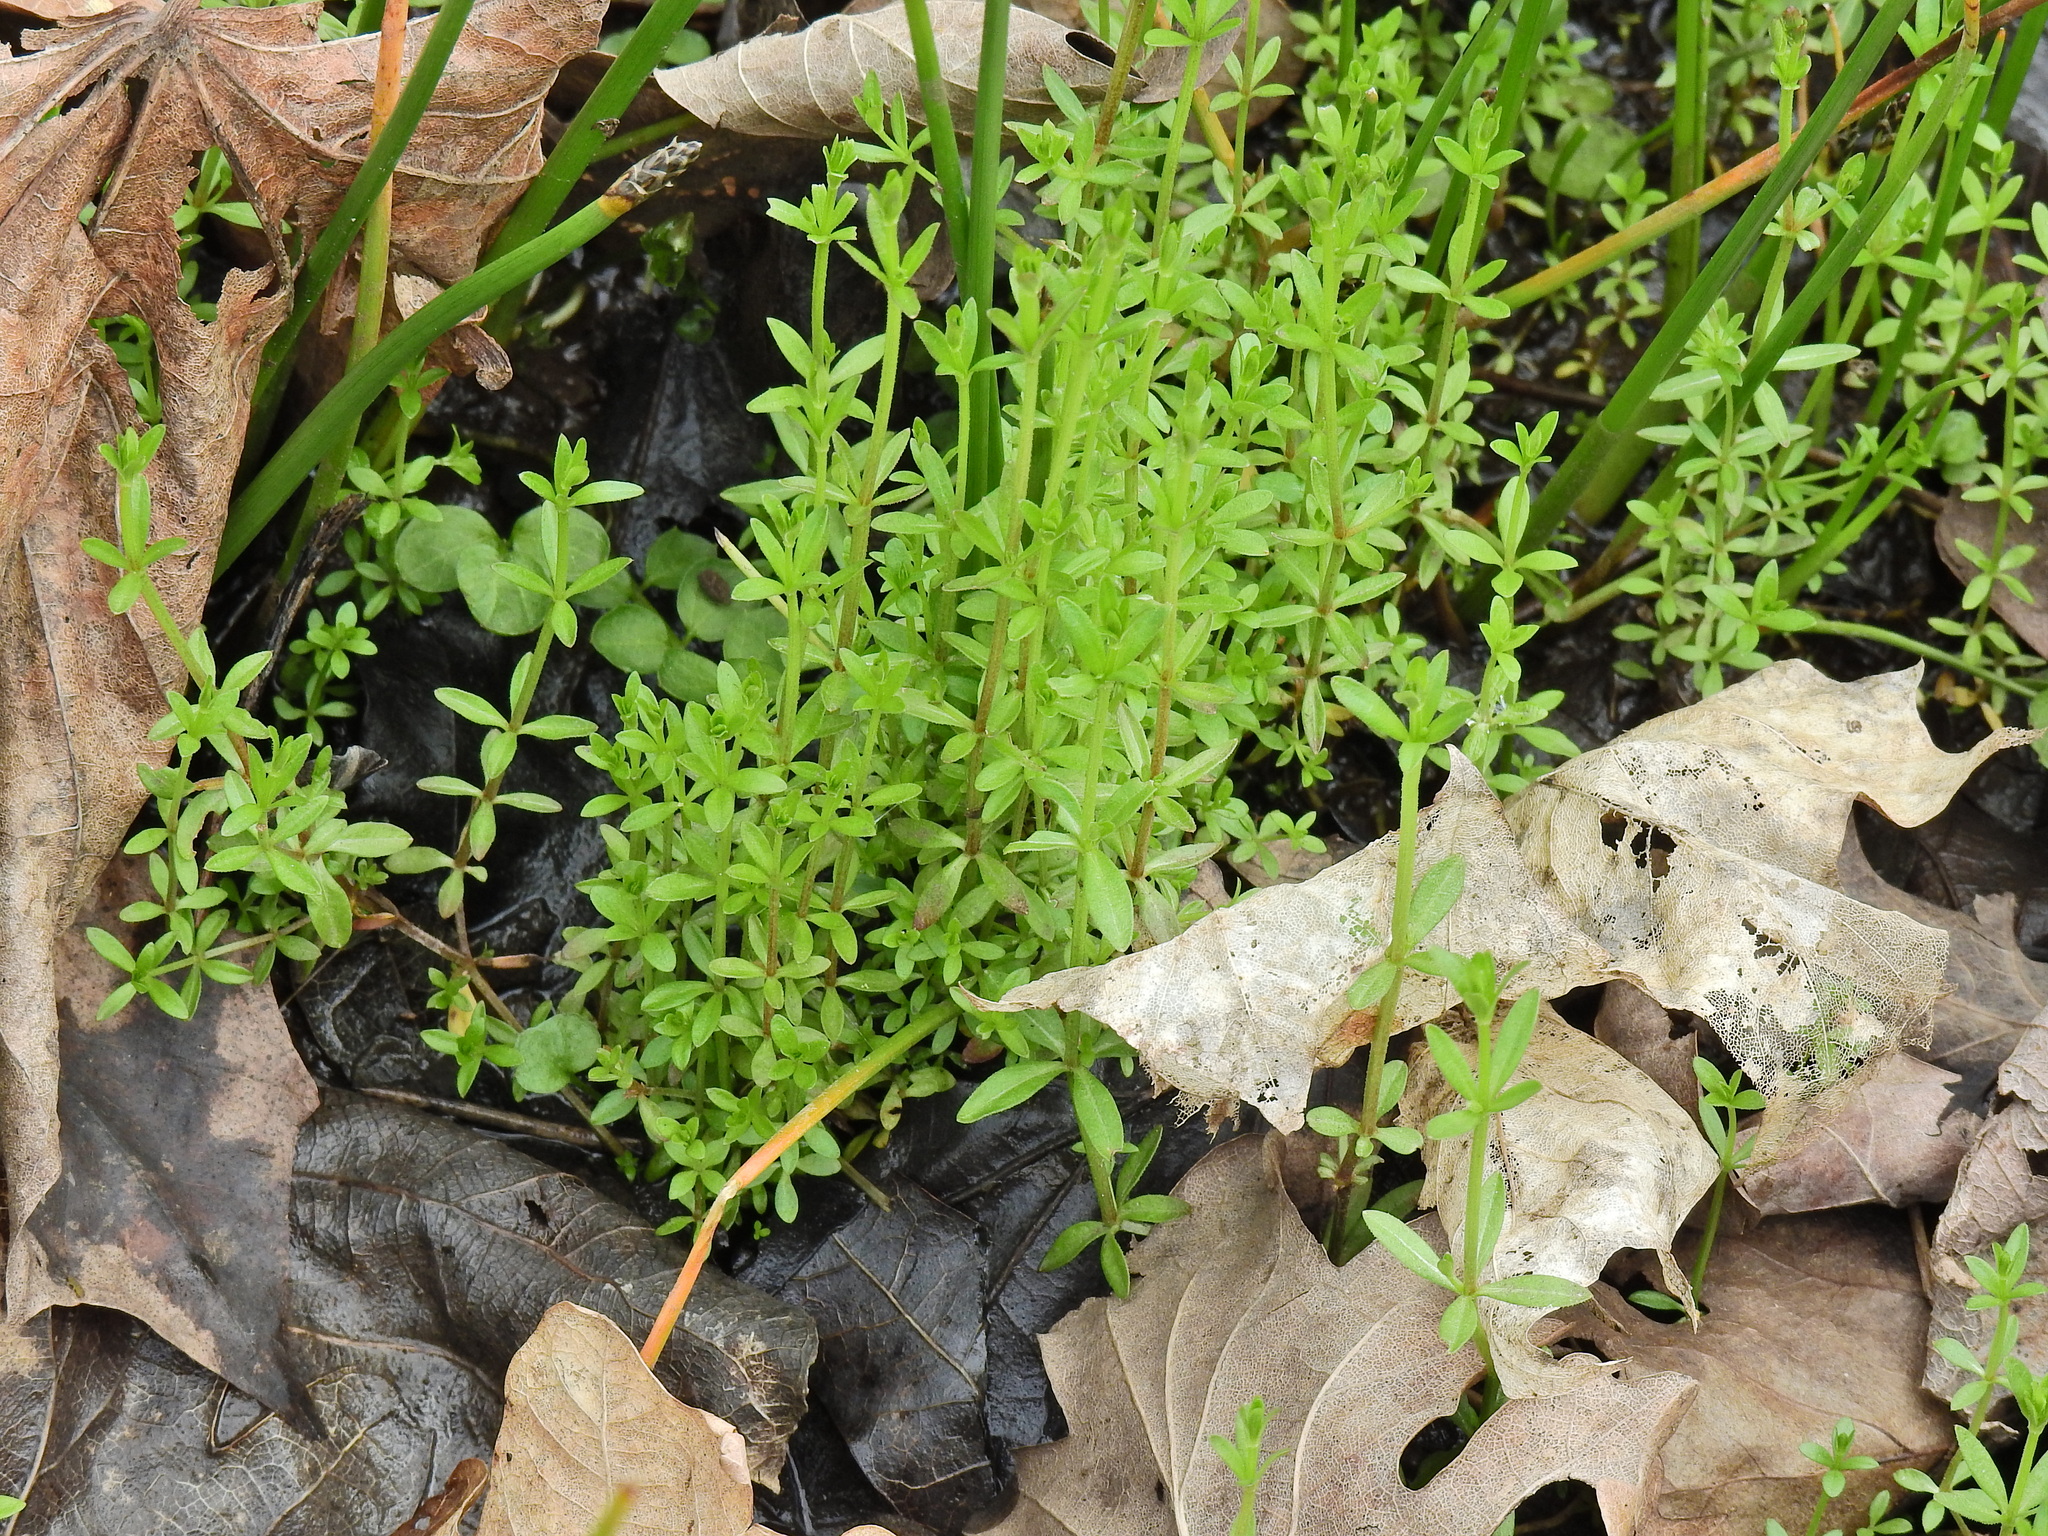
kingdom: Plantae
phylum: Tracheophyta
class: Magnoliopsida
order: Gentianales
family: Rubiaceae
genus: Galium
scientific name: Galium palustre
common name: Common marsh-bedstraw
